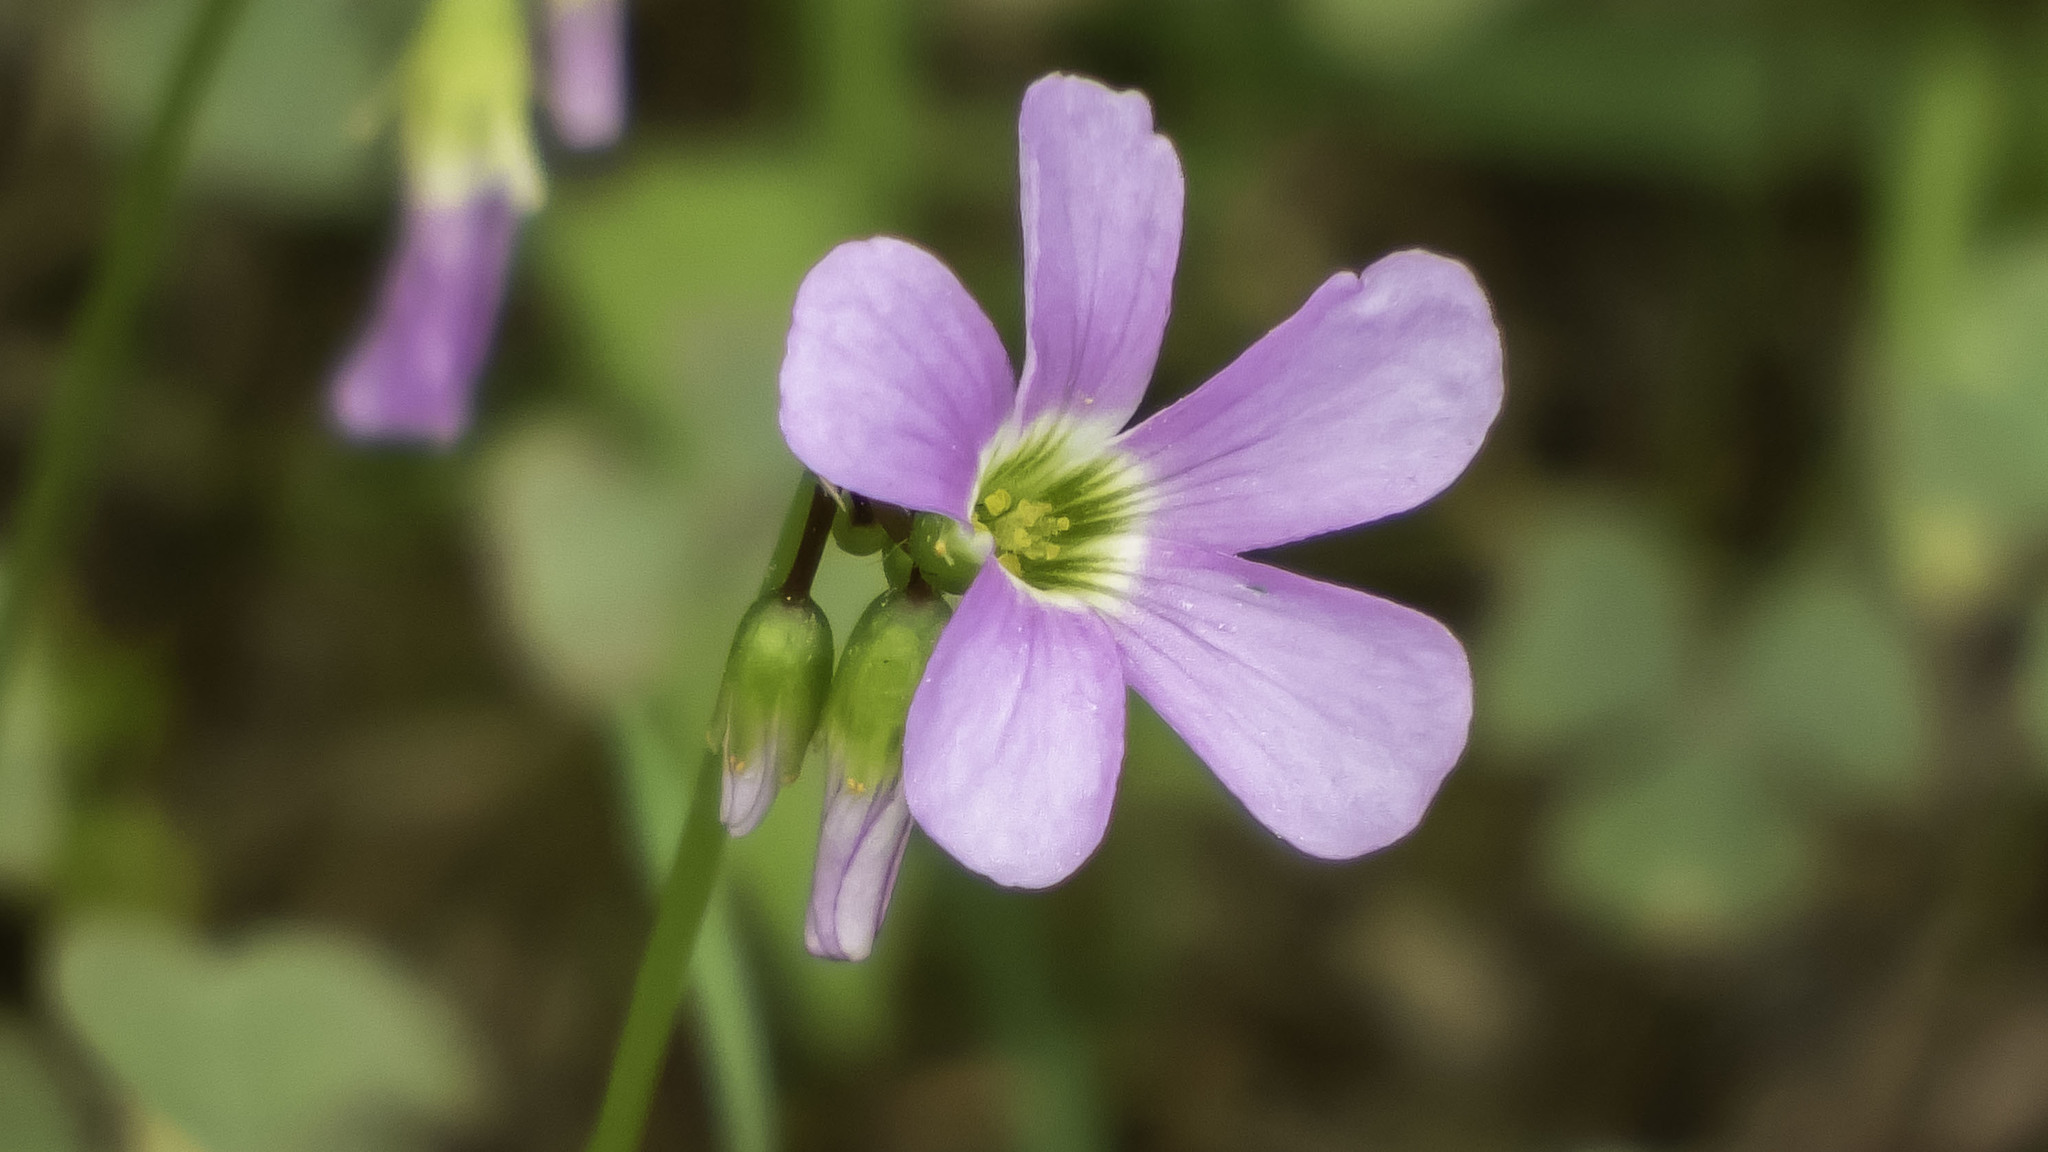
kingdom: Plantae
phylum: Tracheophyta
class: Magnoliopsida
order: Oxalidales
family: Oxalidaceae
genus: Oxalis
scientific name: Oxalis violacea
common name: Violet wood-sorrel
